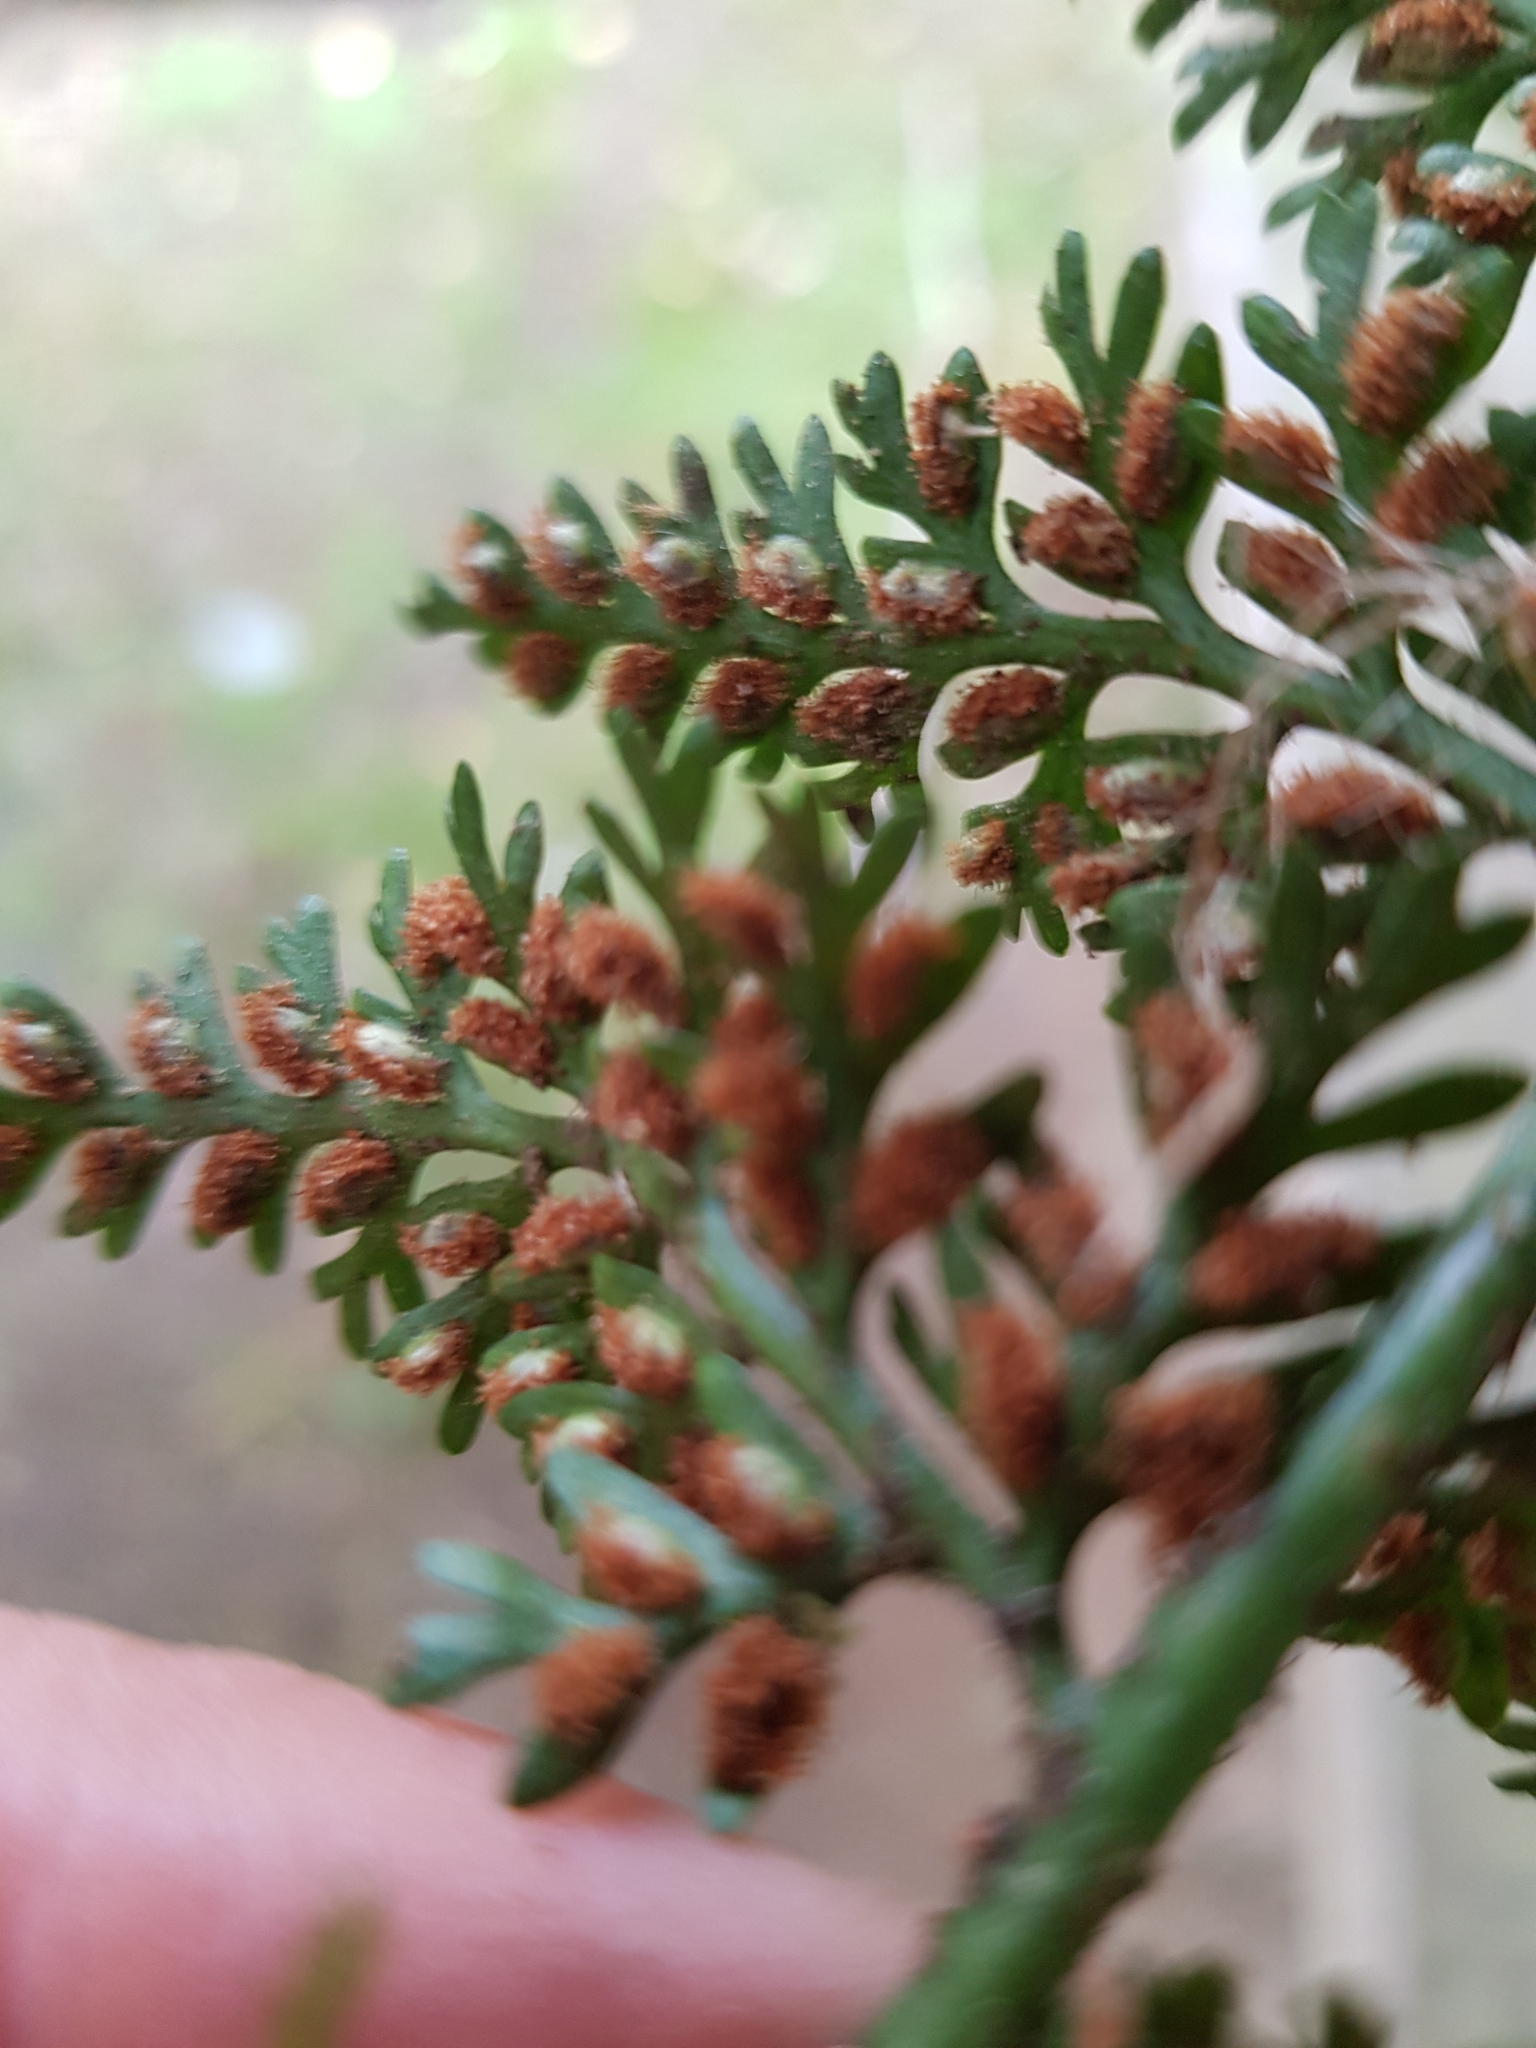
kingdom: Plantae
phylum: Tracheophyta
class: Polypodiopsida
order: Polypodiales
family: Aspleniaceae
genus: Asplenium
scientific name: Asplenium
